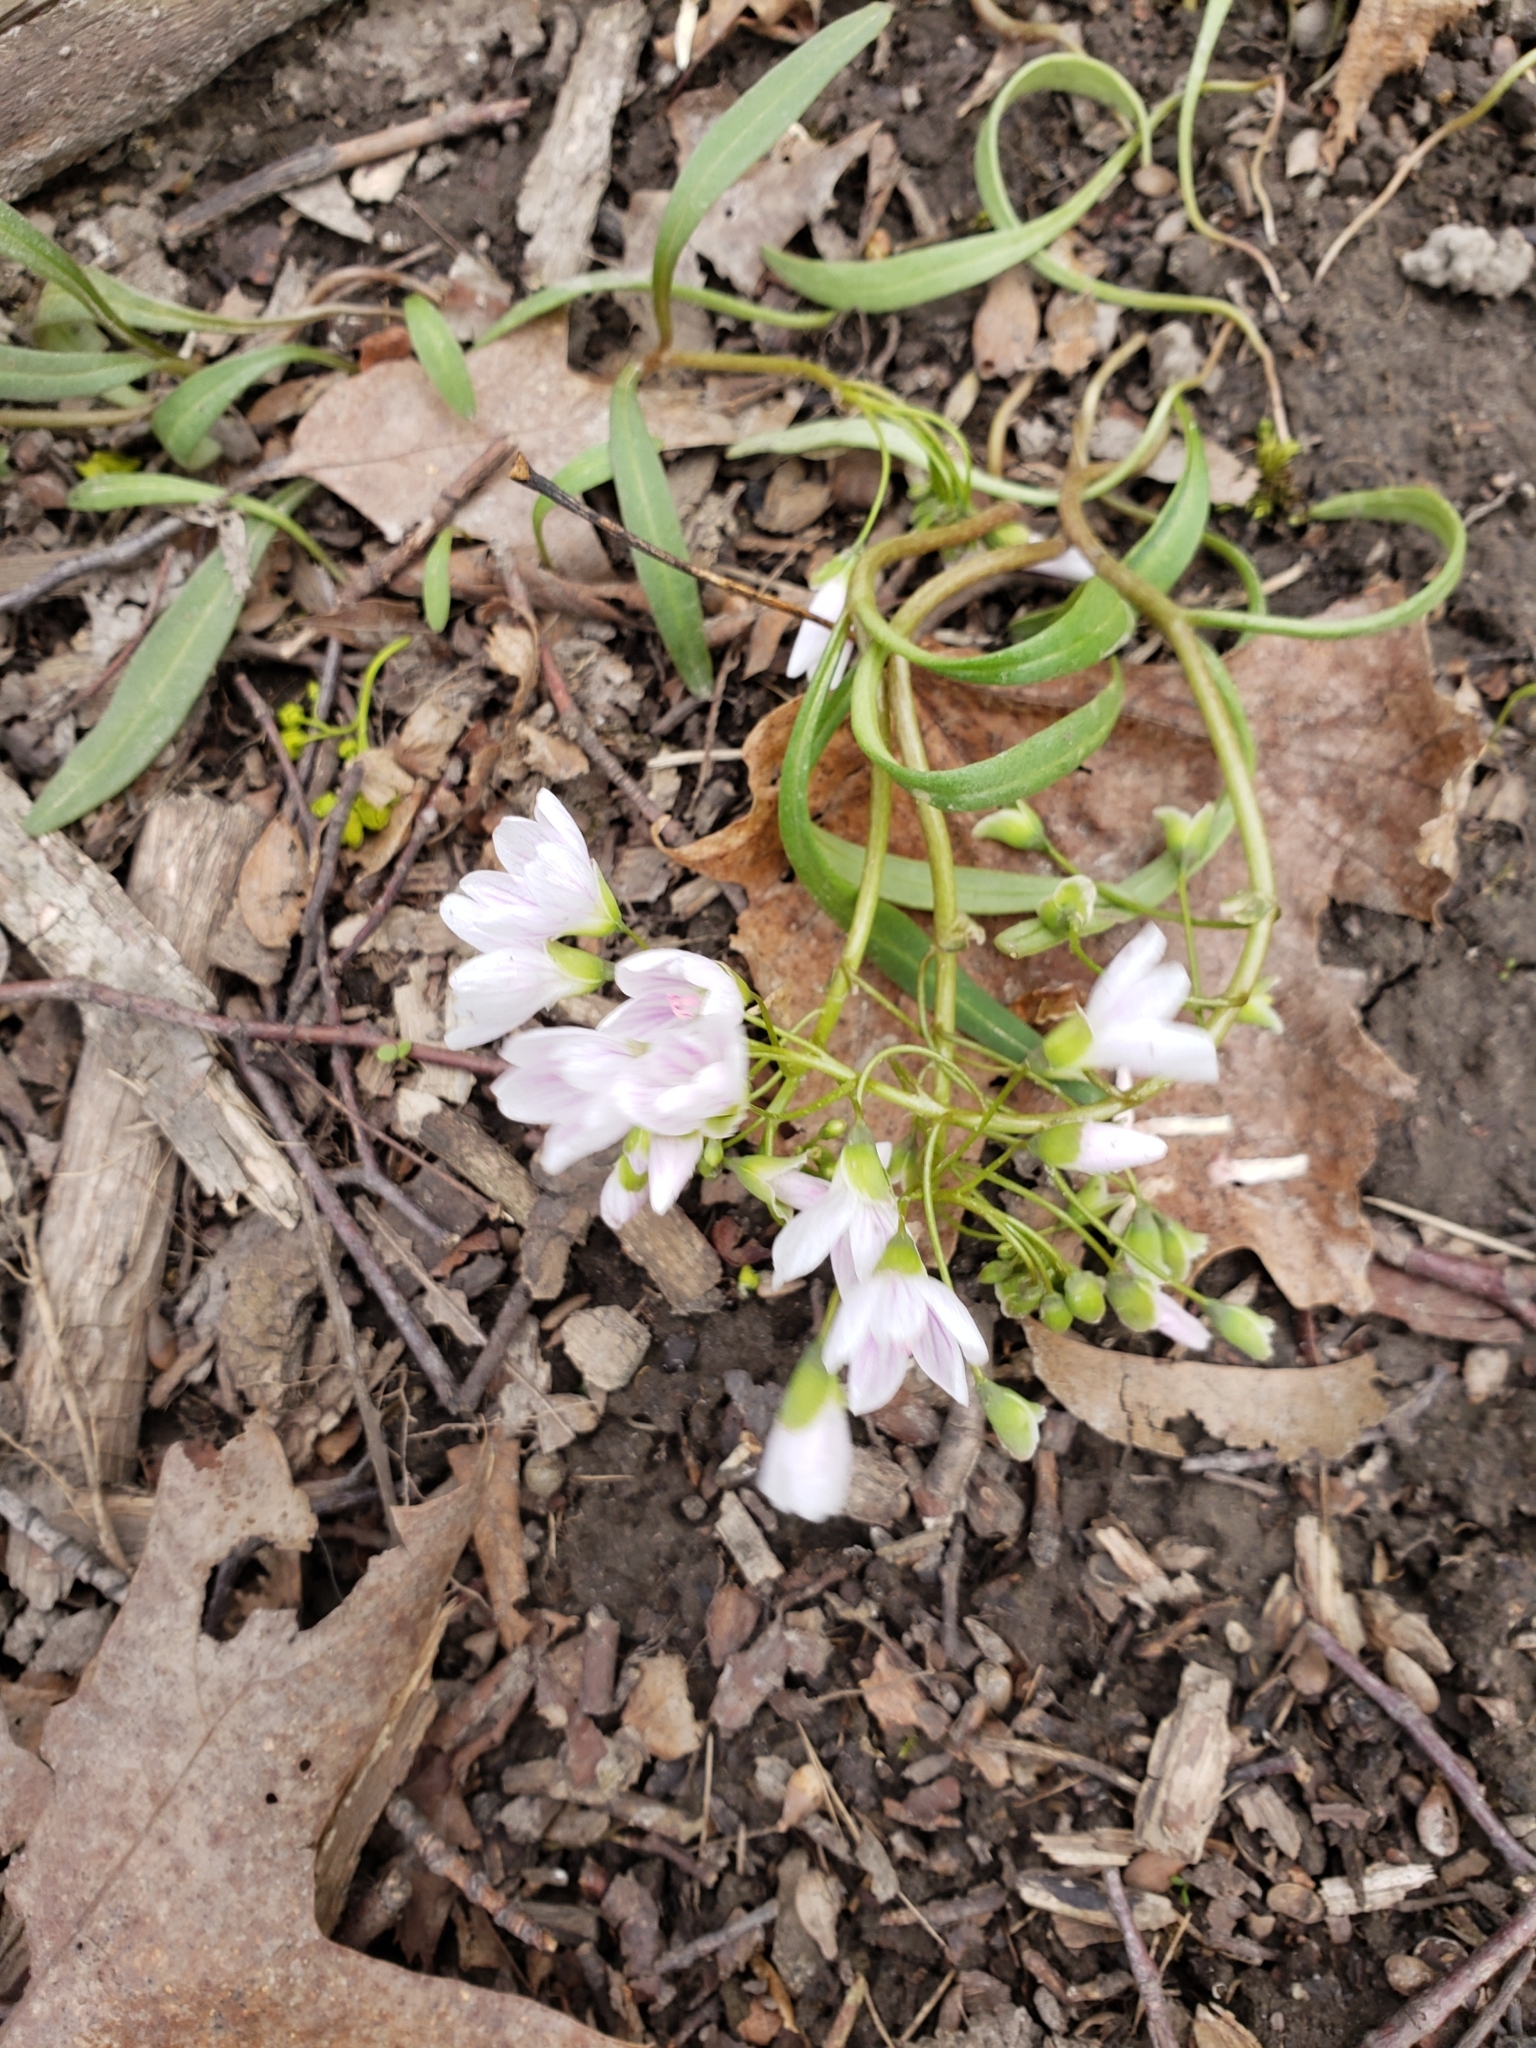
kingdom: Plantae
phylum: Tracheophyta
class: Magnoliopsida
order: Caryophyllales
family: Montiaceae
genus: Claytonia
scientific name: Claytonia virginica
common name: Virginia springbeauty
